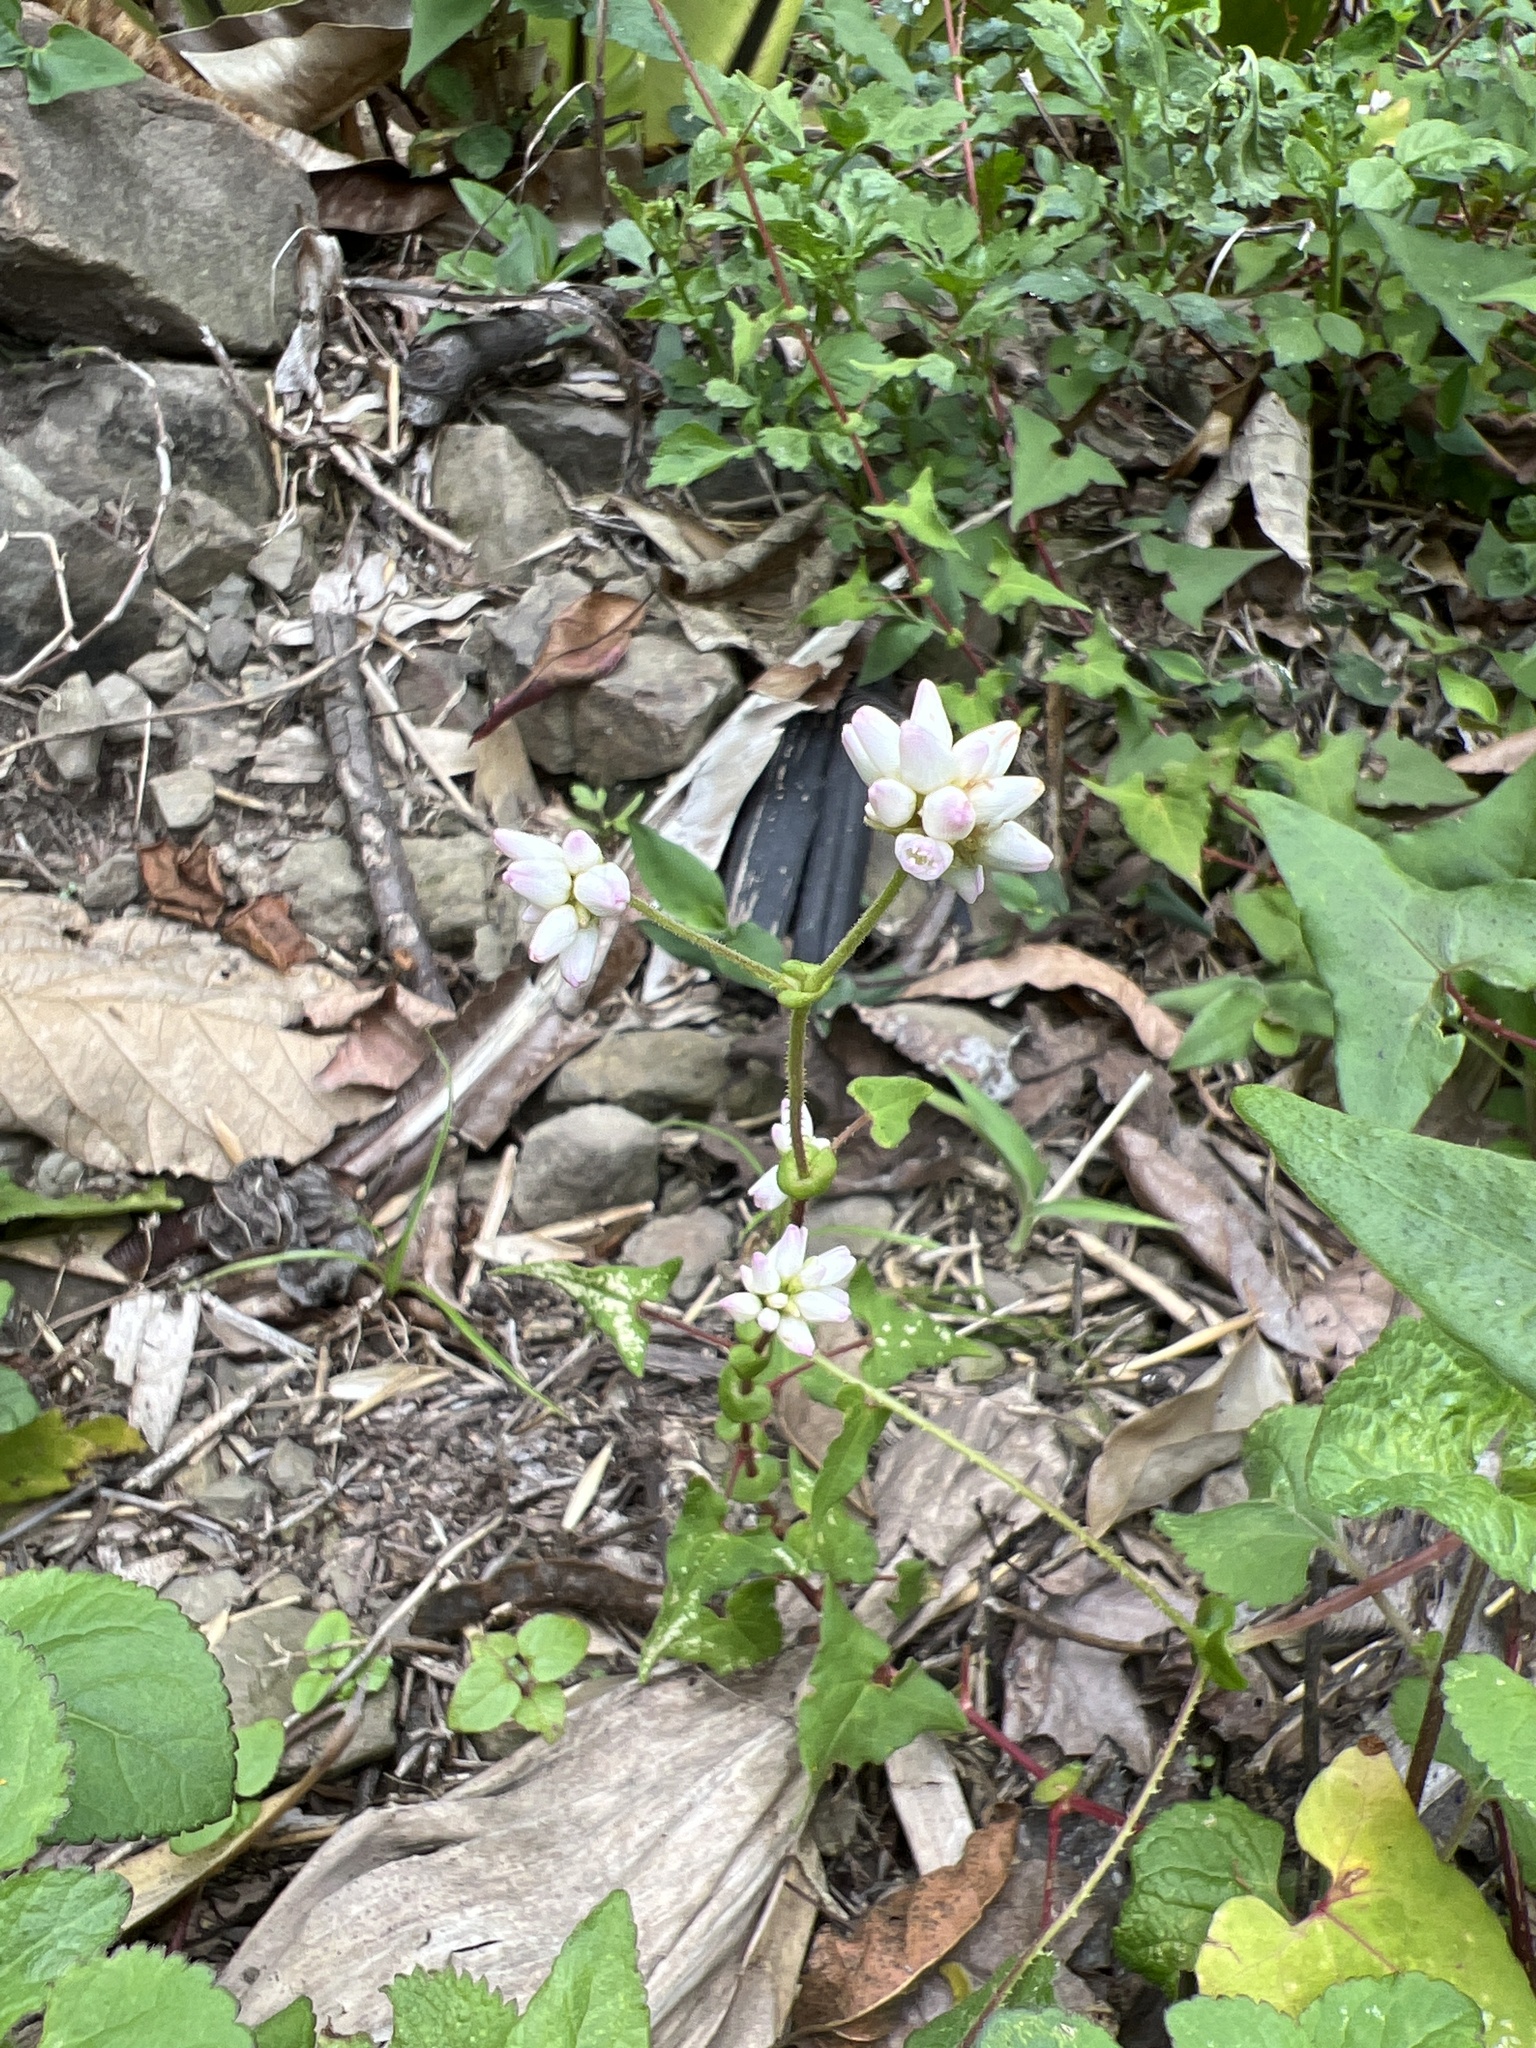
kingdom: Plantae
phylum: Tracheophyta
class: Magnoliopsida
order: Caryophyllales
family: Polygonaceae
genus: Persicaria
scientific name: Persicaria senticosa
